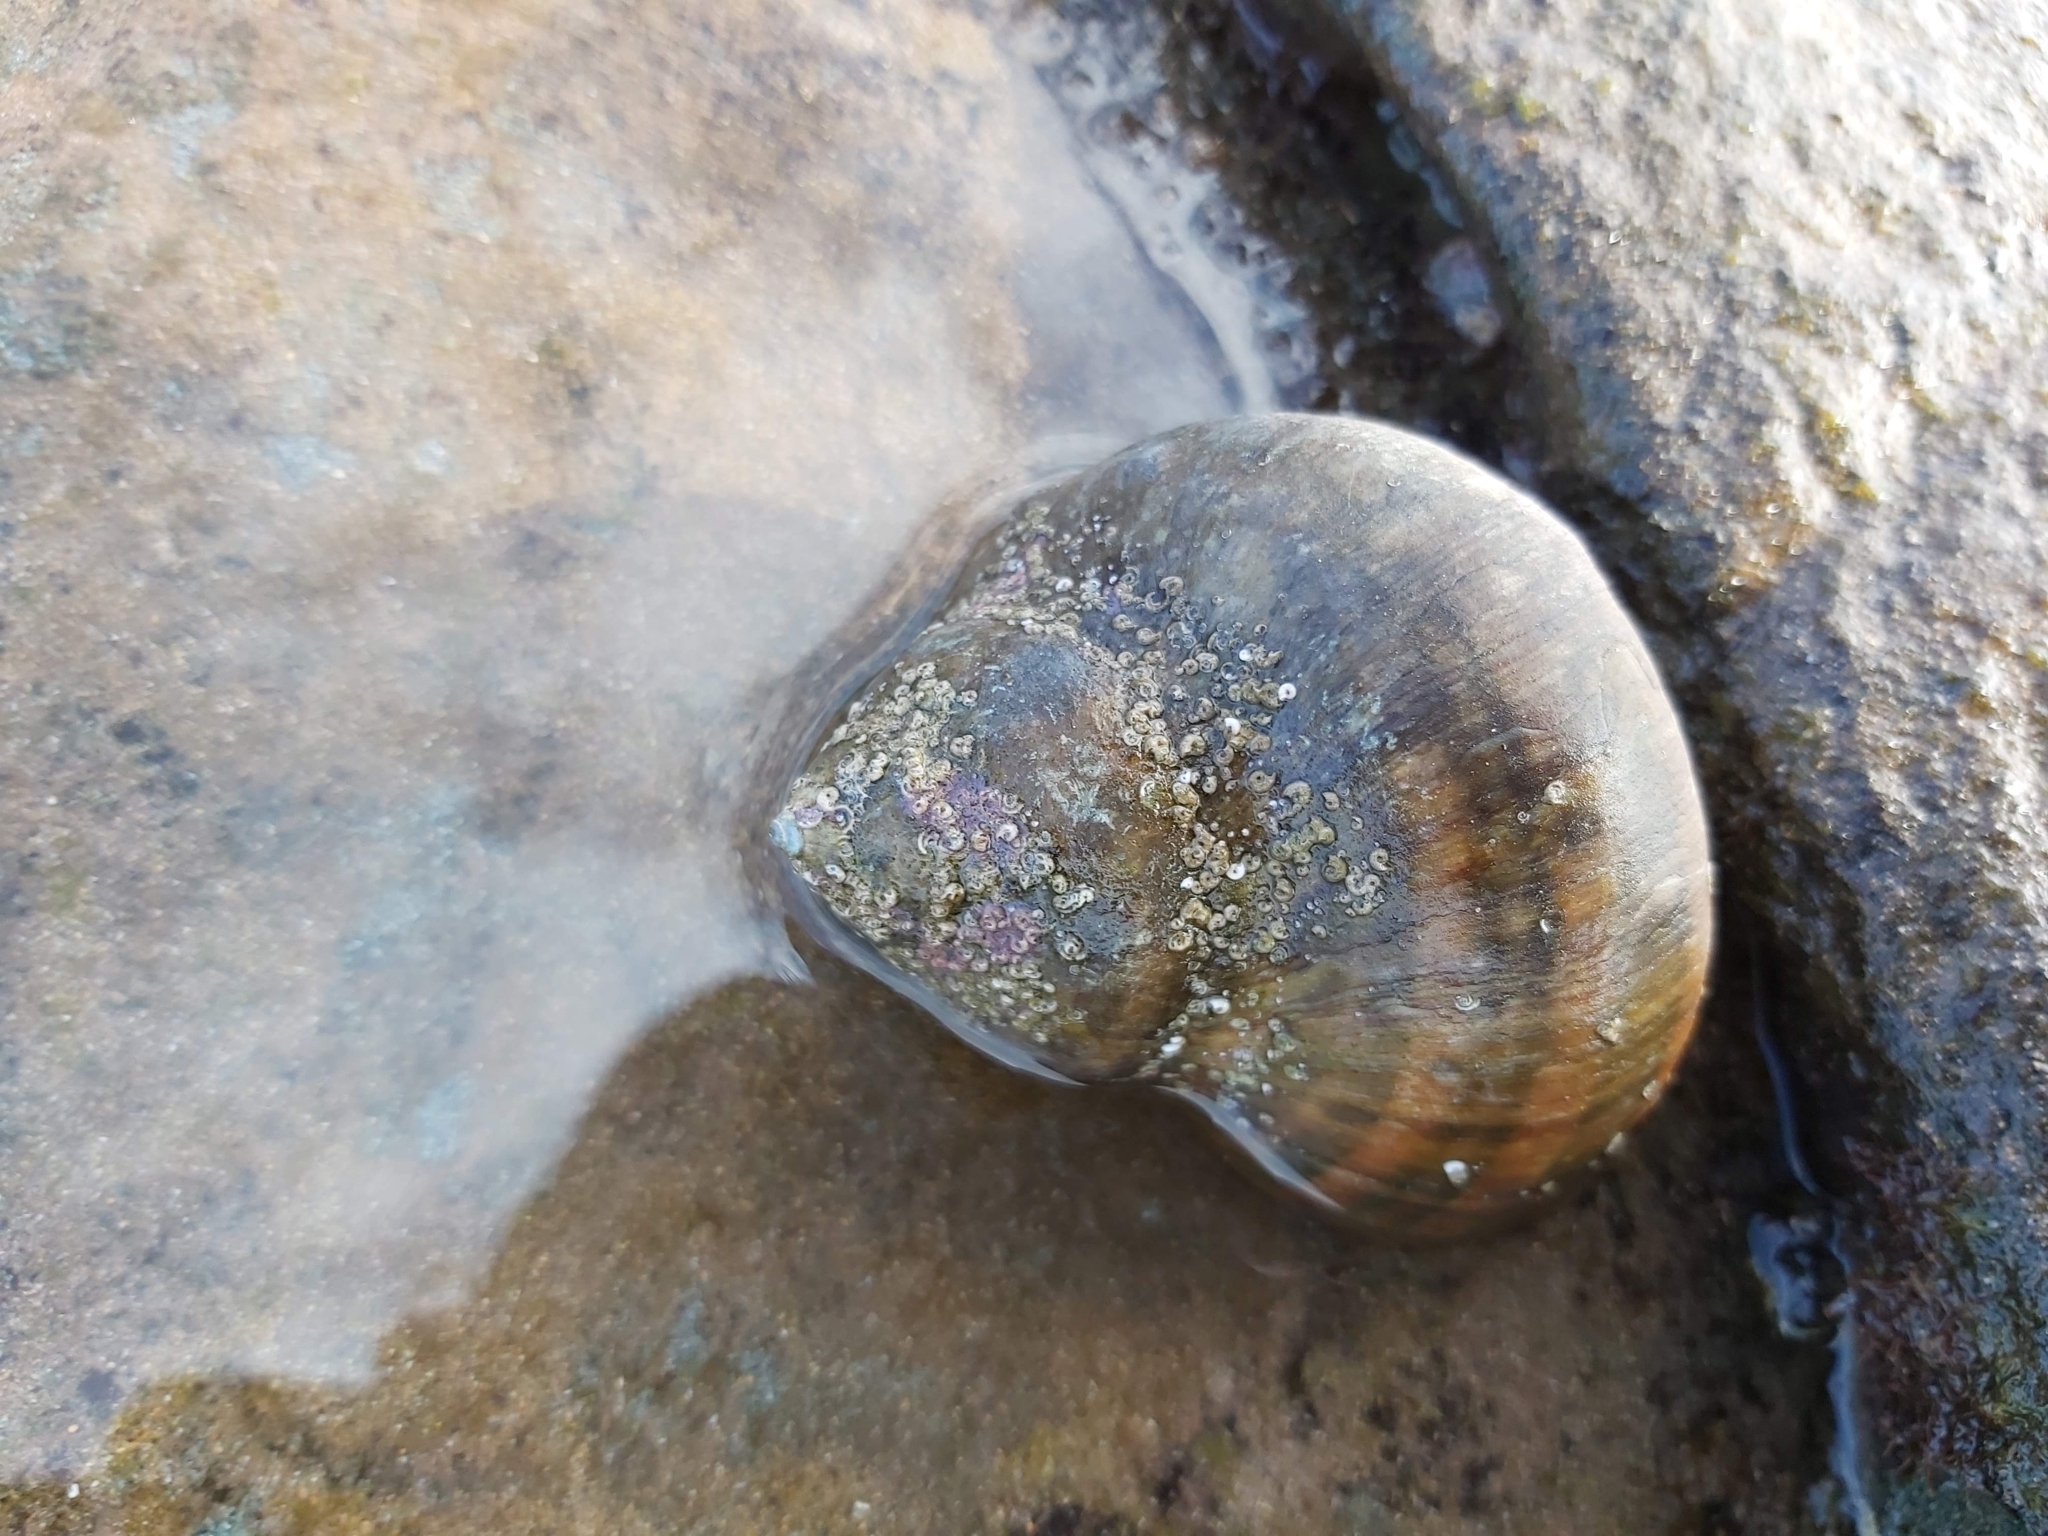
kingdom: Animalia
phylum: Mollusca
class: Gastropoda
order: Trochida
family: Turbinidae
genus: Turbo
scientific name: Turbo militaris
